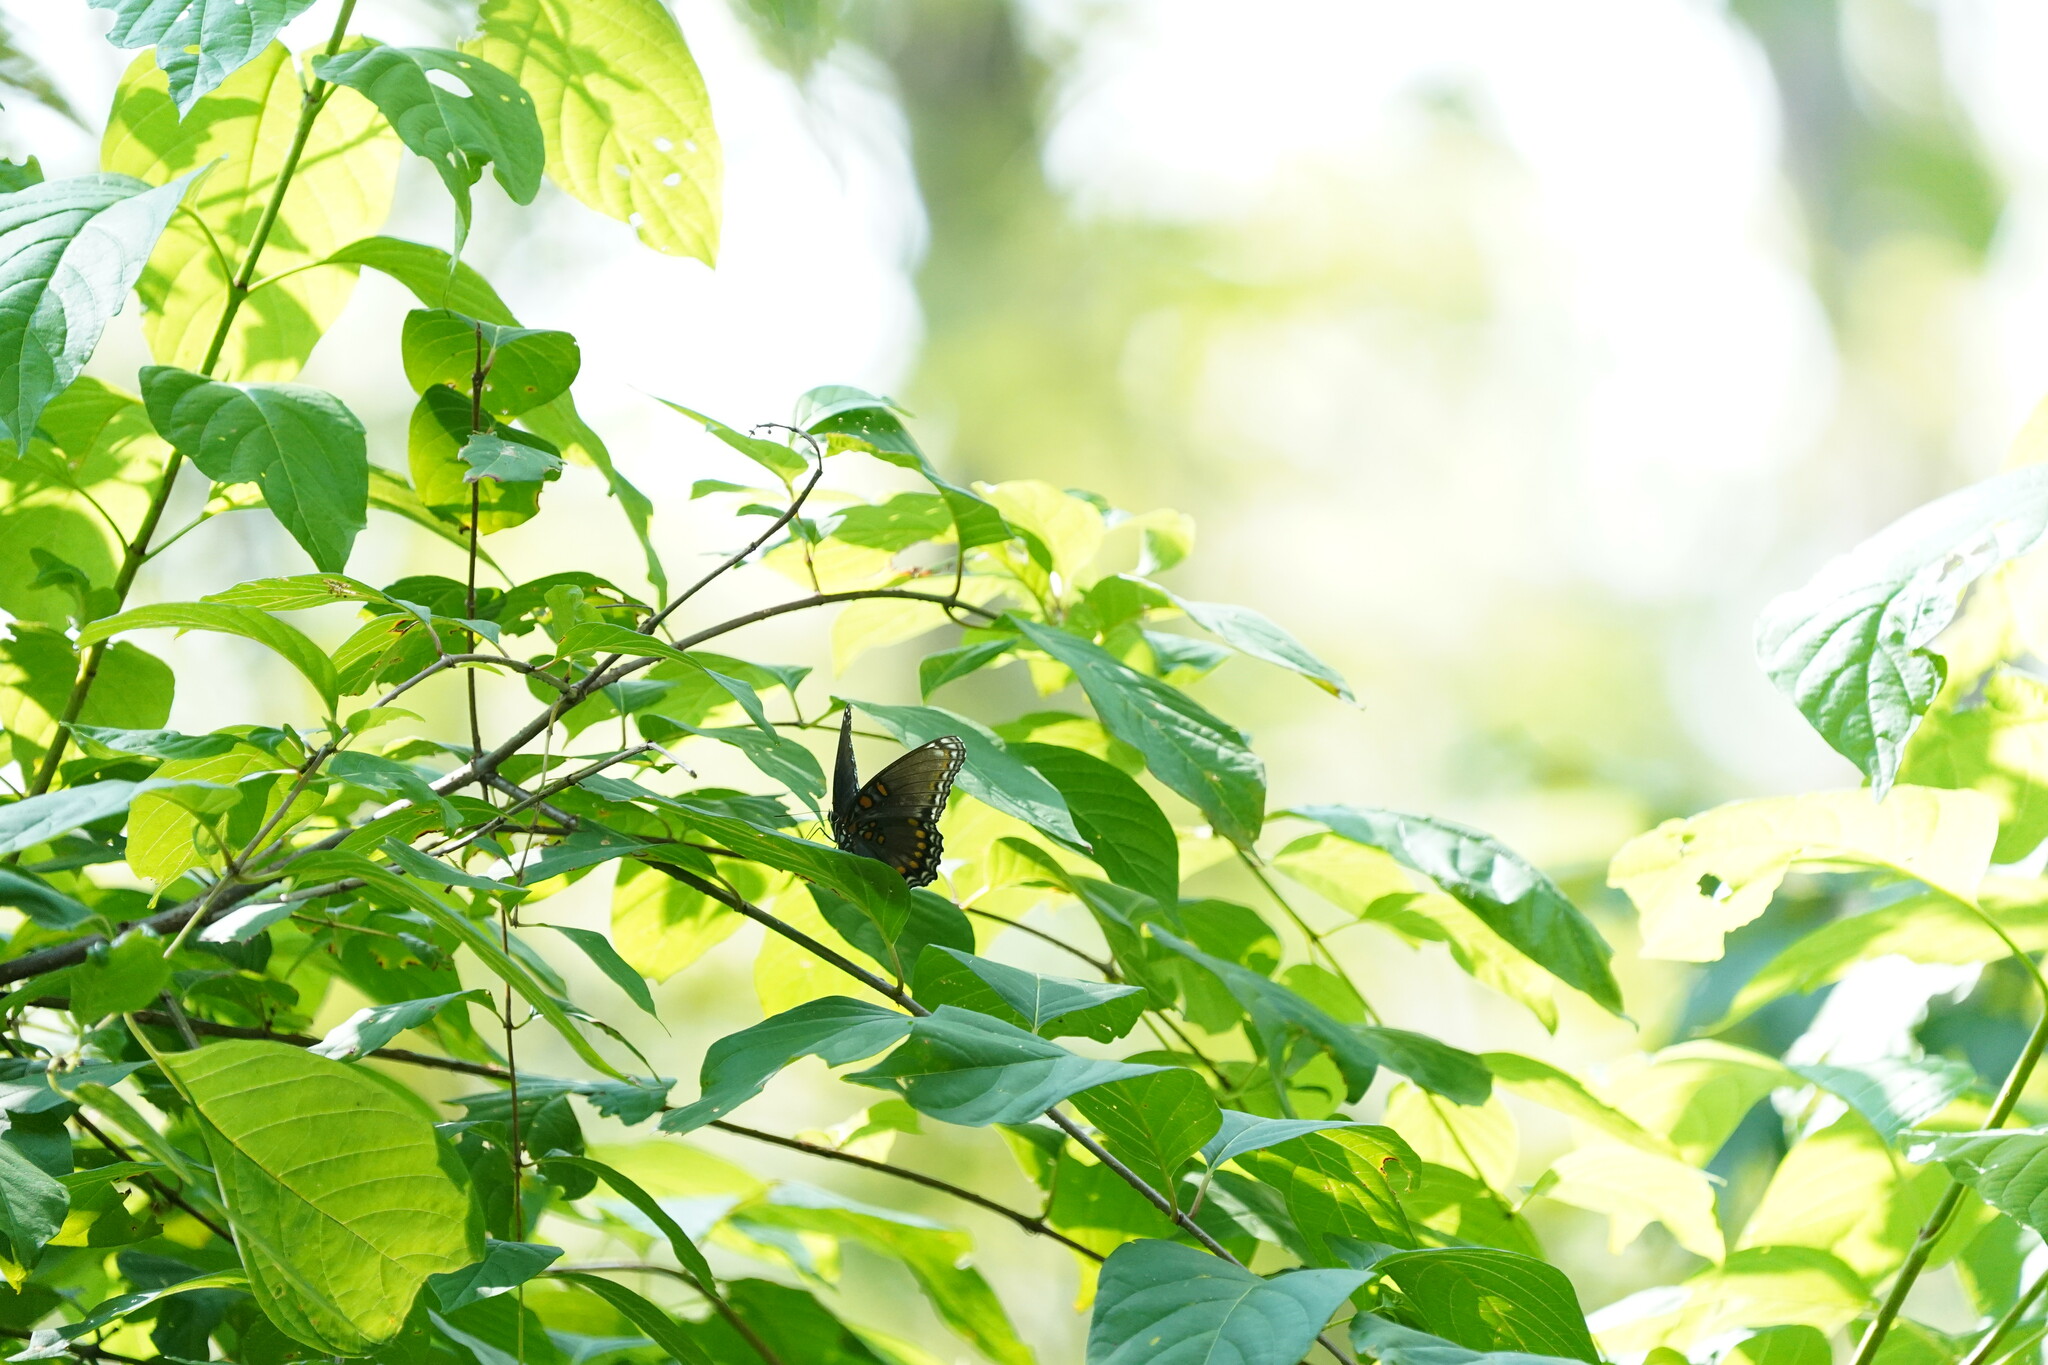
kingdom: Animalia
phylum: Arthropoda
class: Insecta
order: Lepidoptera
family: Nymphalidae
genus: Limenitis
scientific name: Limenitis arthemis
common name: Red-spotted admiral
